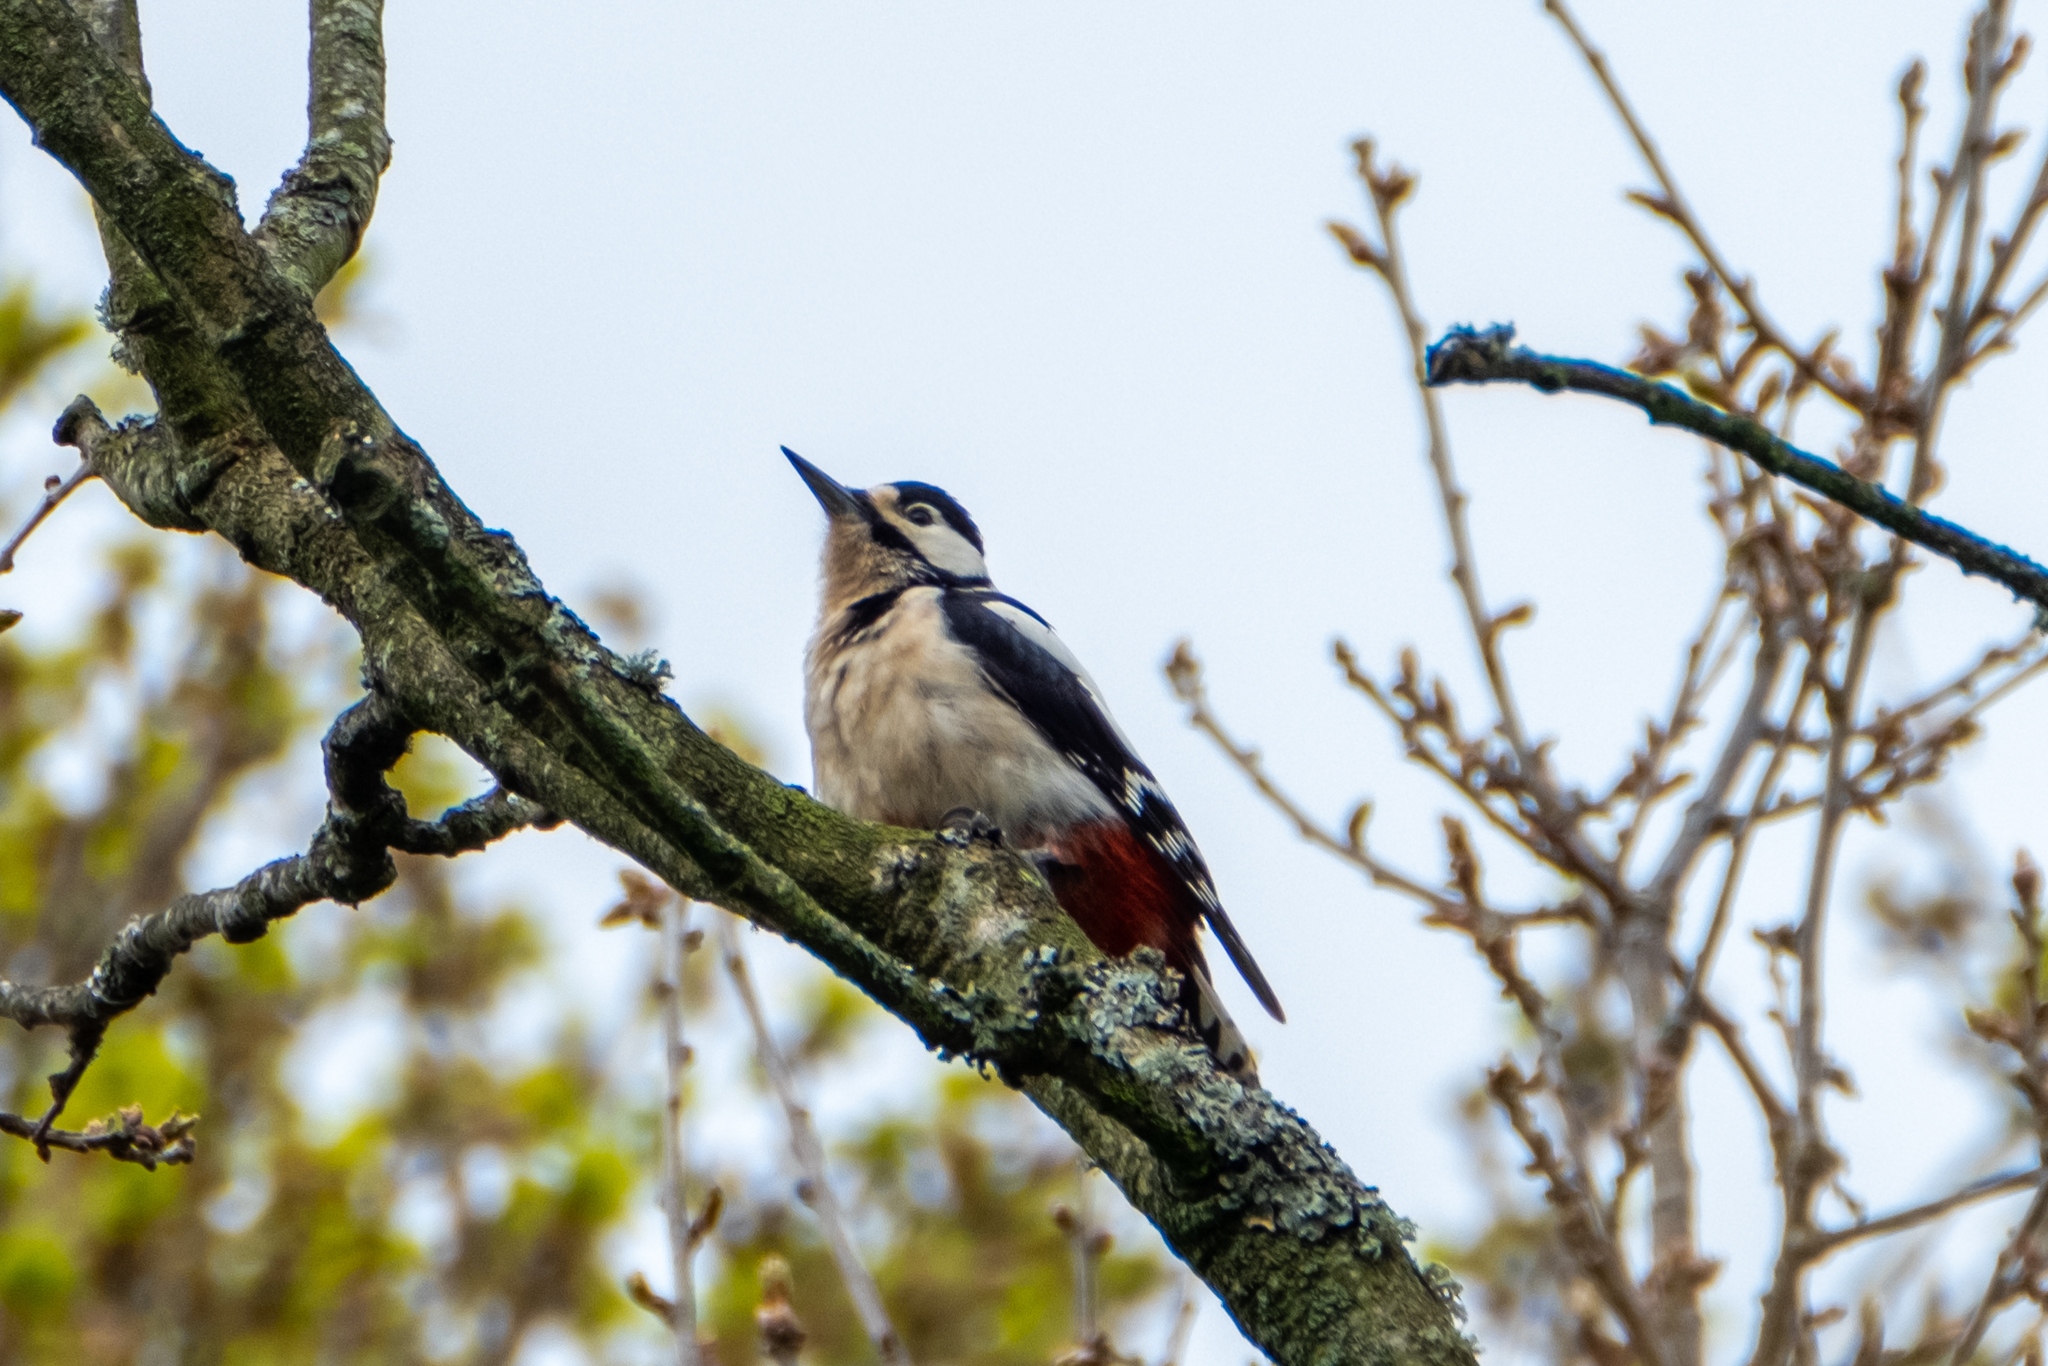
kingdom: Animalia
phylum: Chordata
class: Aves
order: Piciformes
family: Picidae
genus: Dendrocopos
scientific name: Dendrocopos major
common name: Great spotted woodpecker
